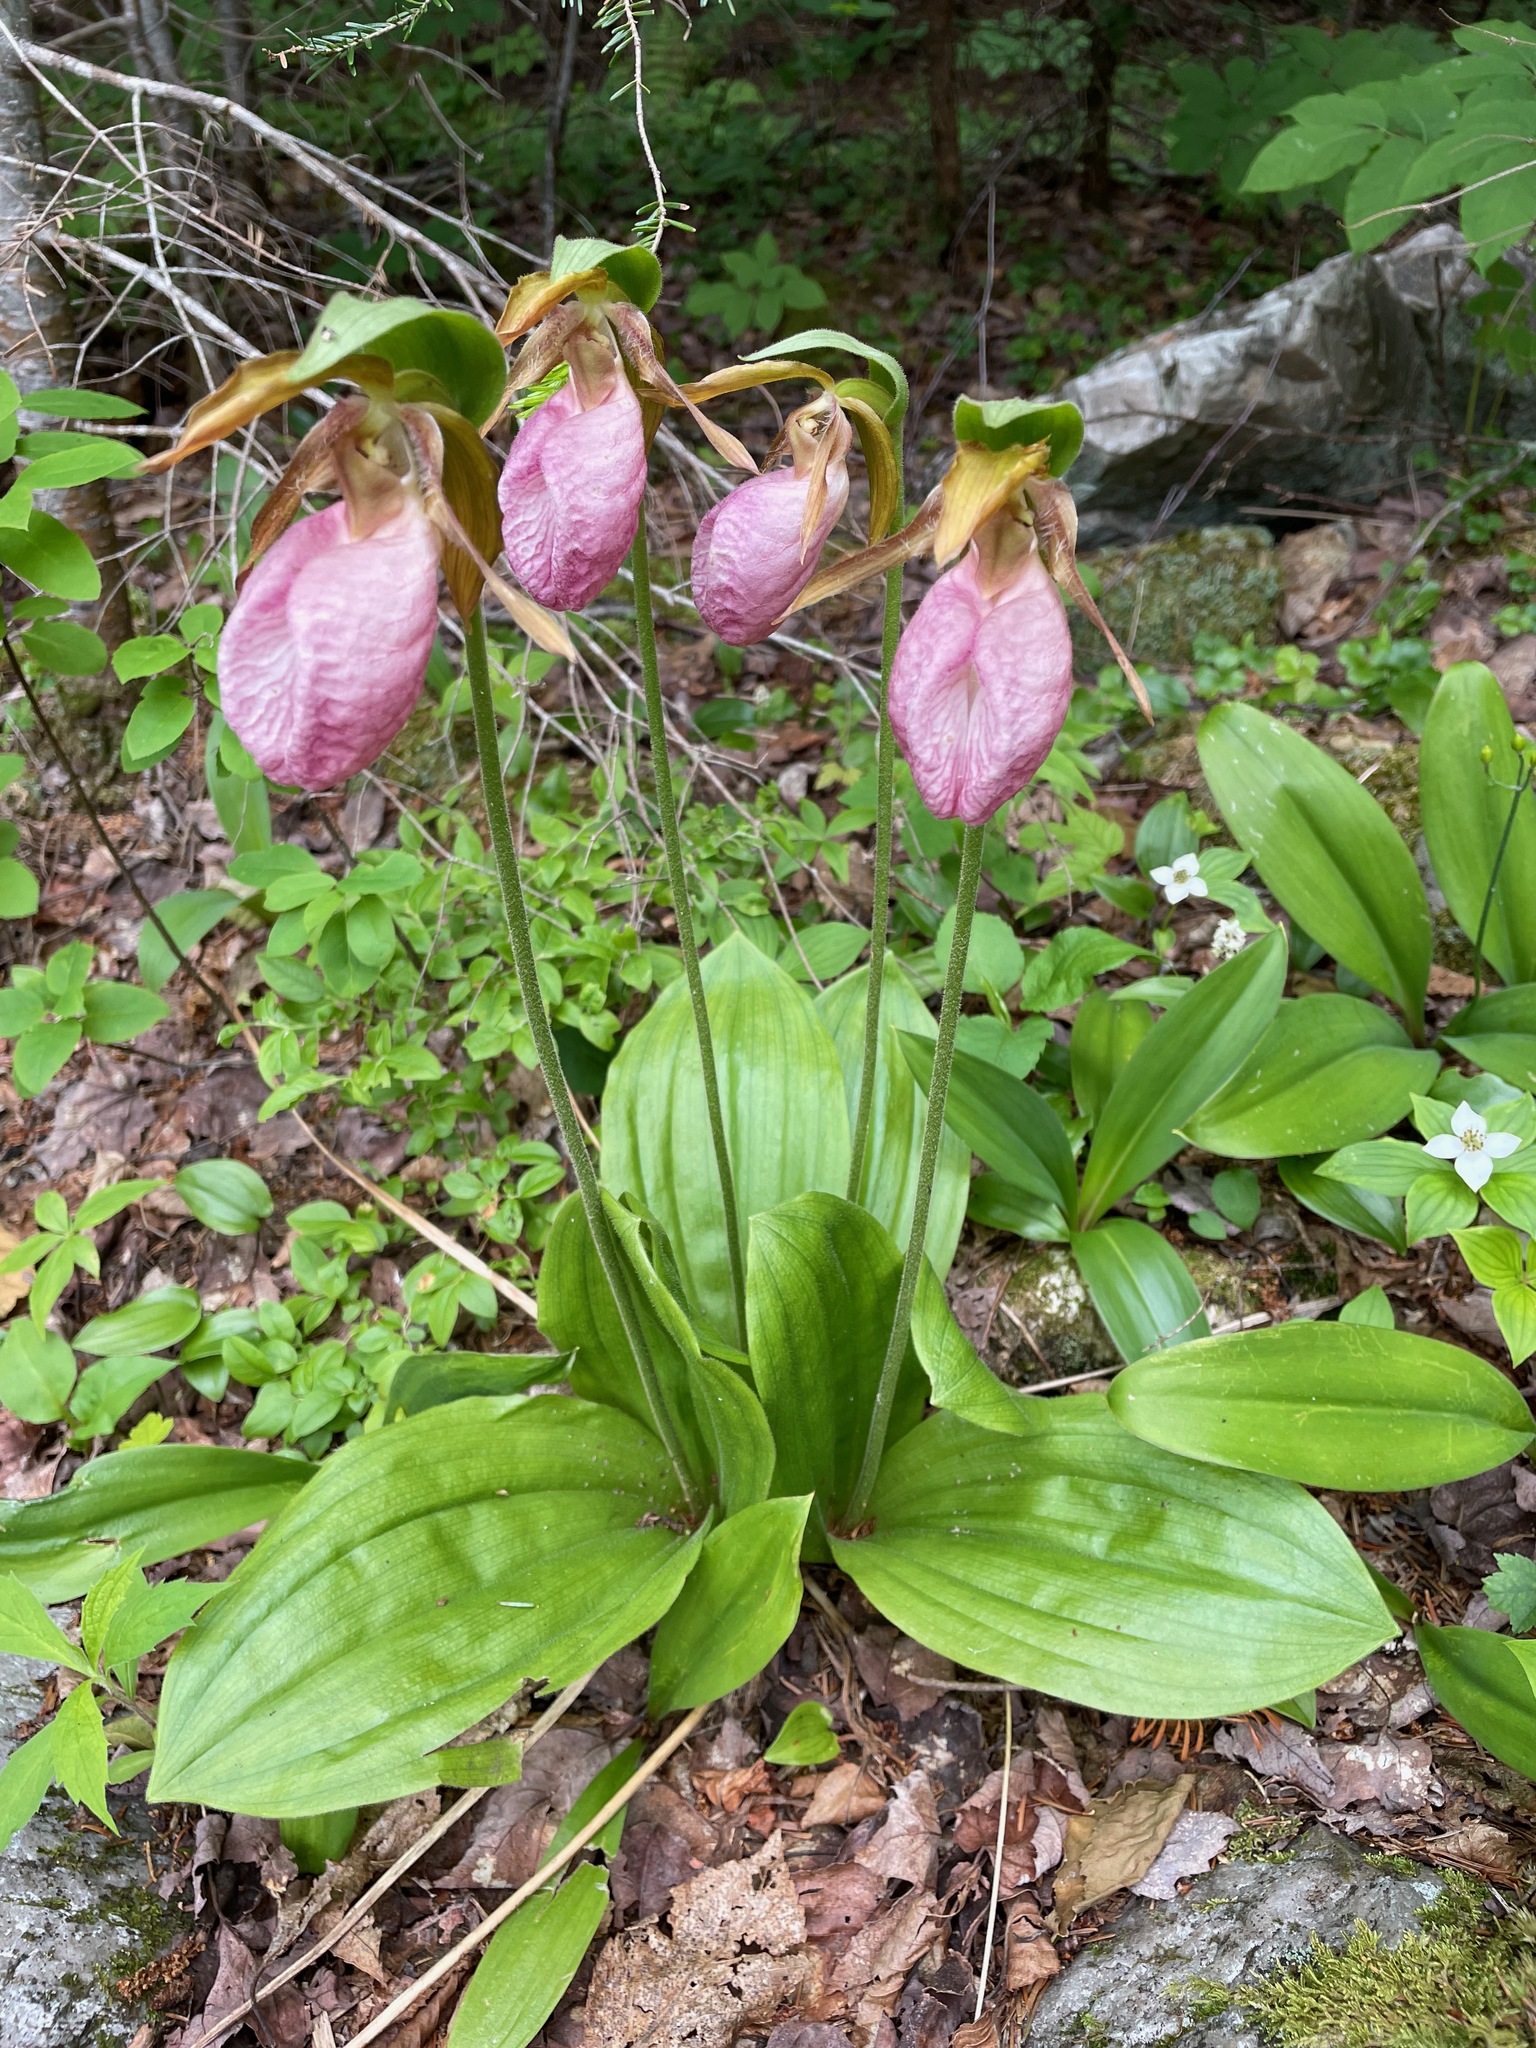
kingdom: Plantae
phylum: Tracheophyta
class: Liliopsida
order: Asparagales
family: Orchidaceae
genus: Cypripedium
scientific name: Cypripedium acaule
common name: Pink lady's-slipper
